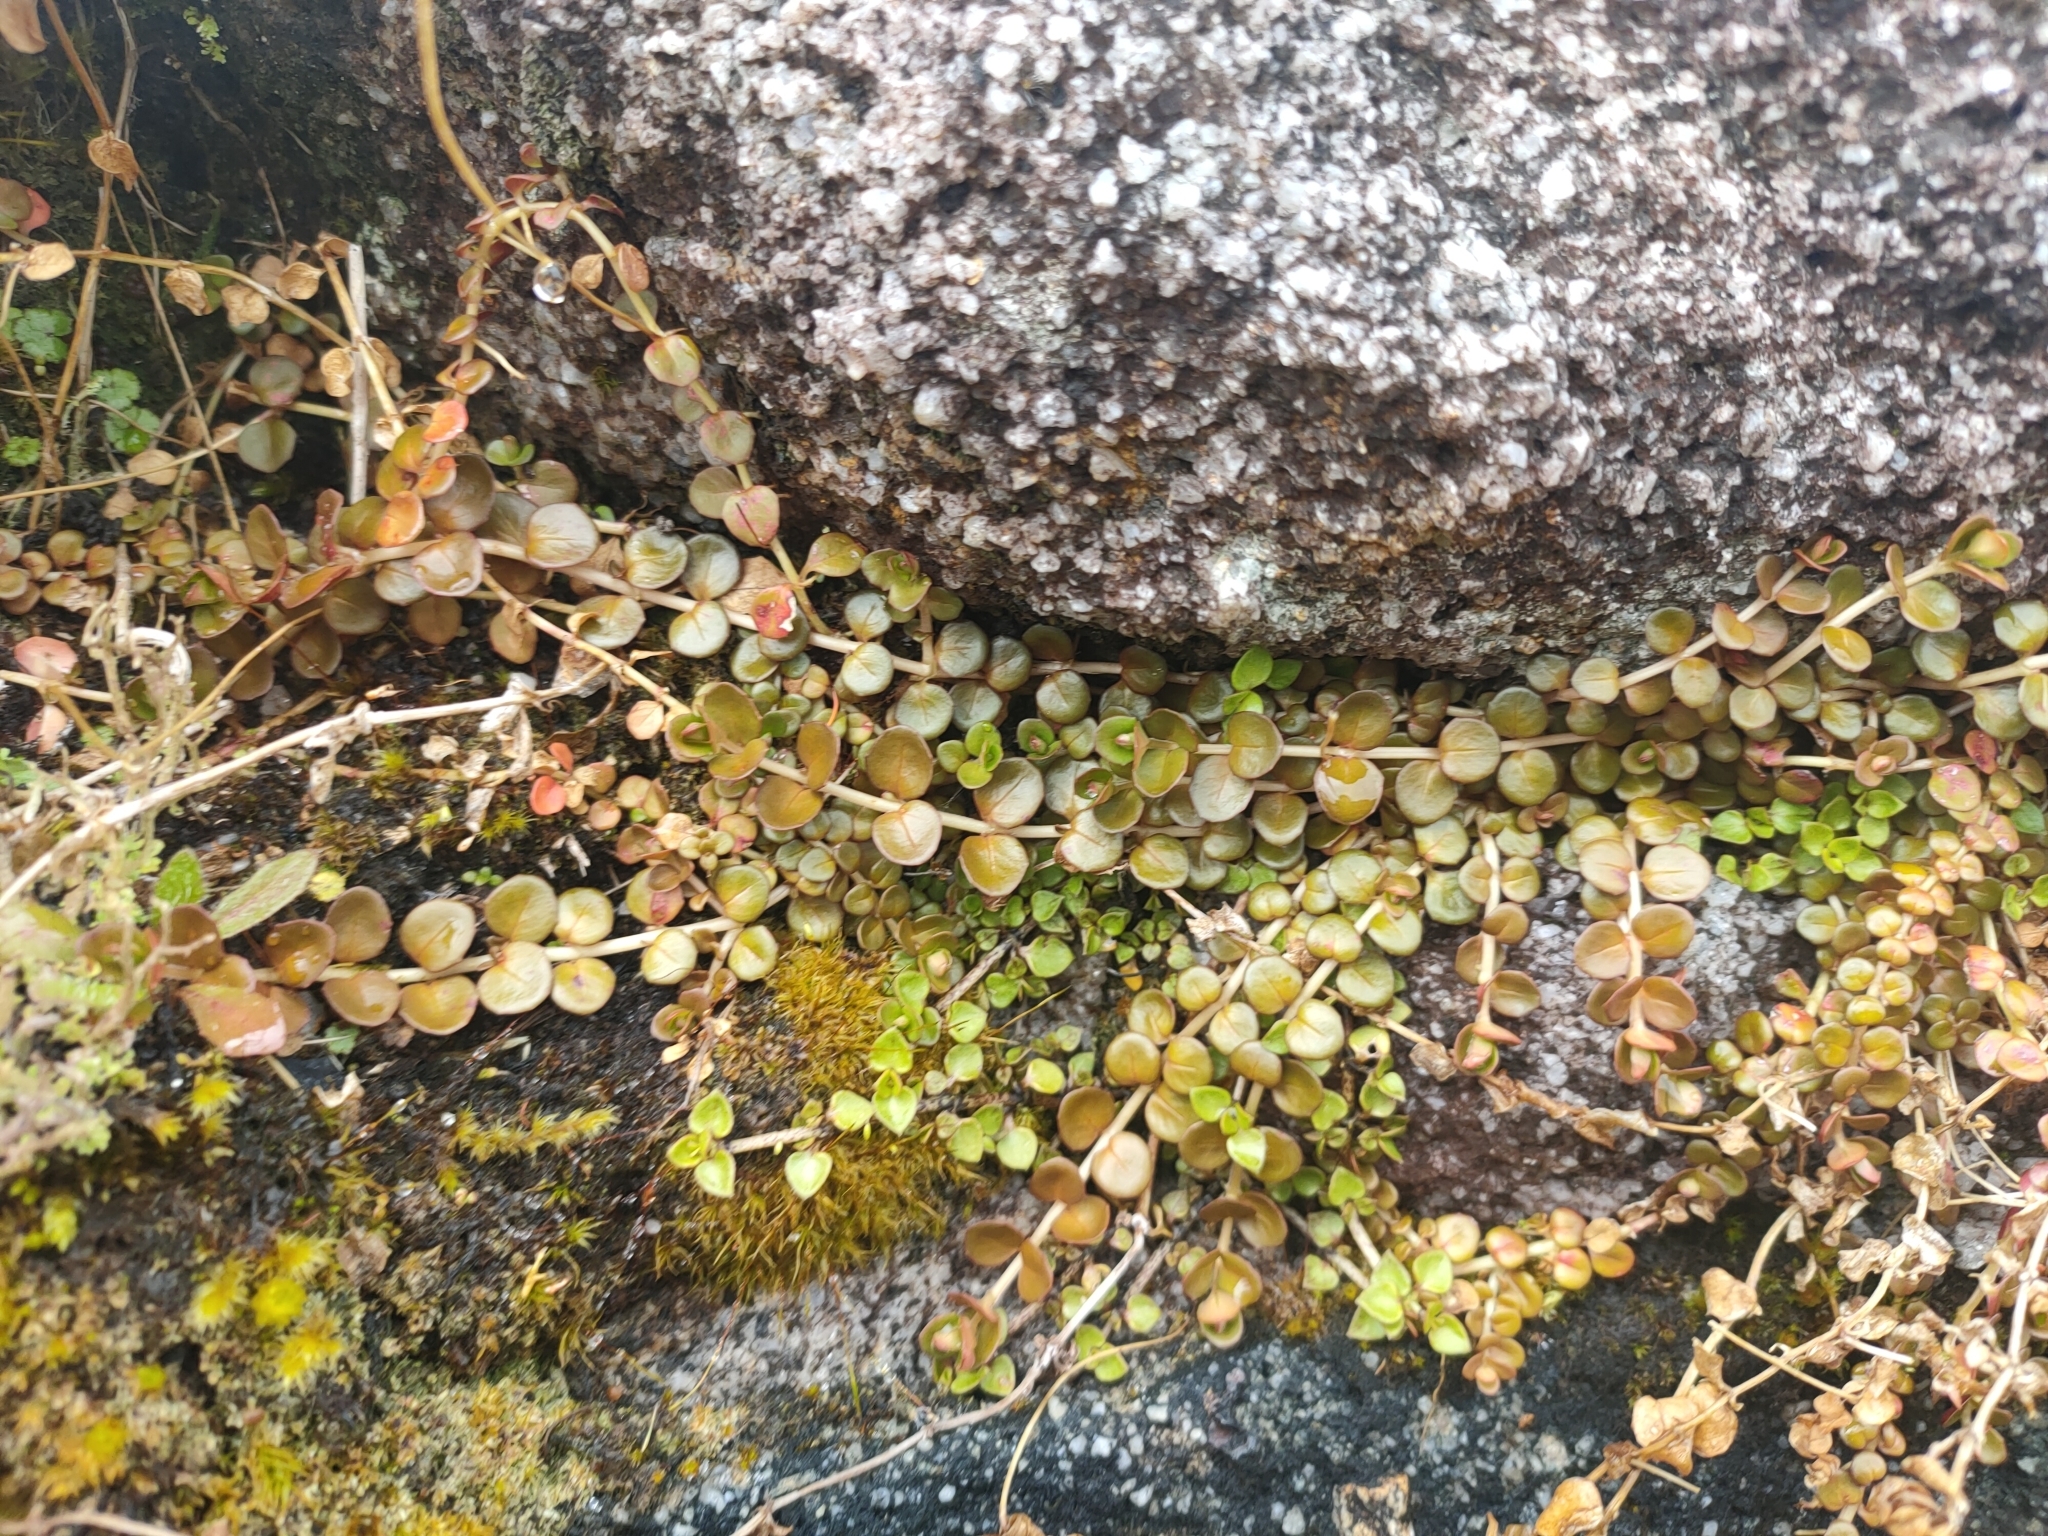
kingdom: Plantae
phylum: Tracheophyta
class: Magnoliopsida
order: Myrtales
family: Onagraceae
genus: Epilobium
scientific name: Epilobium brunnescens
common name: New zealand willowherb
